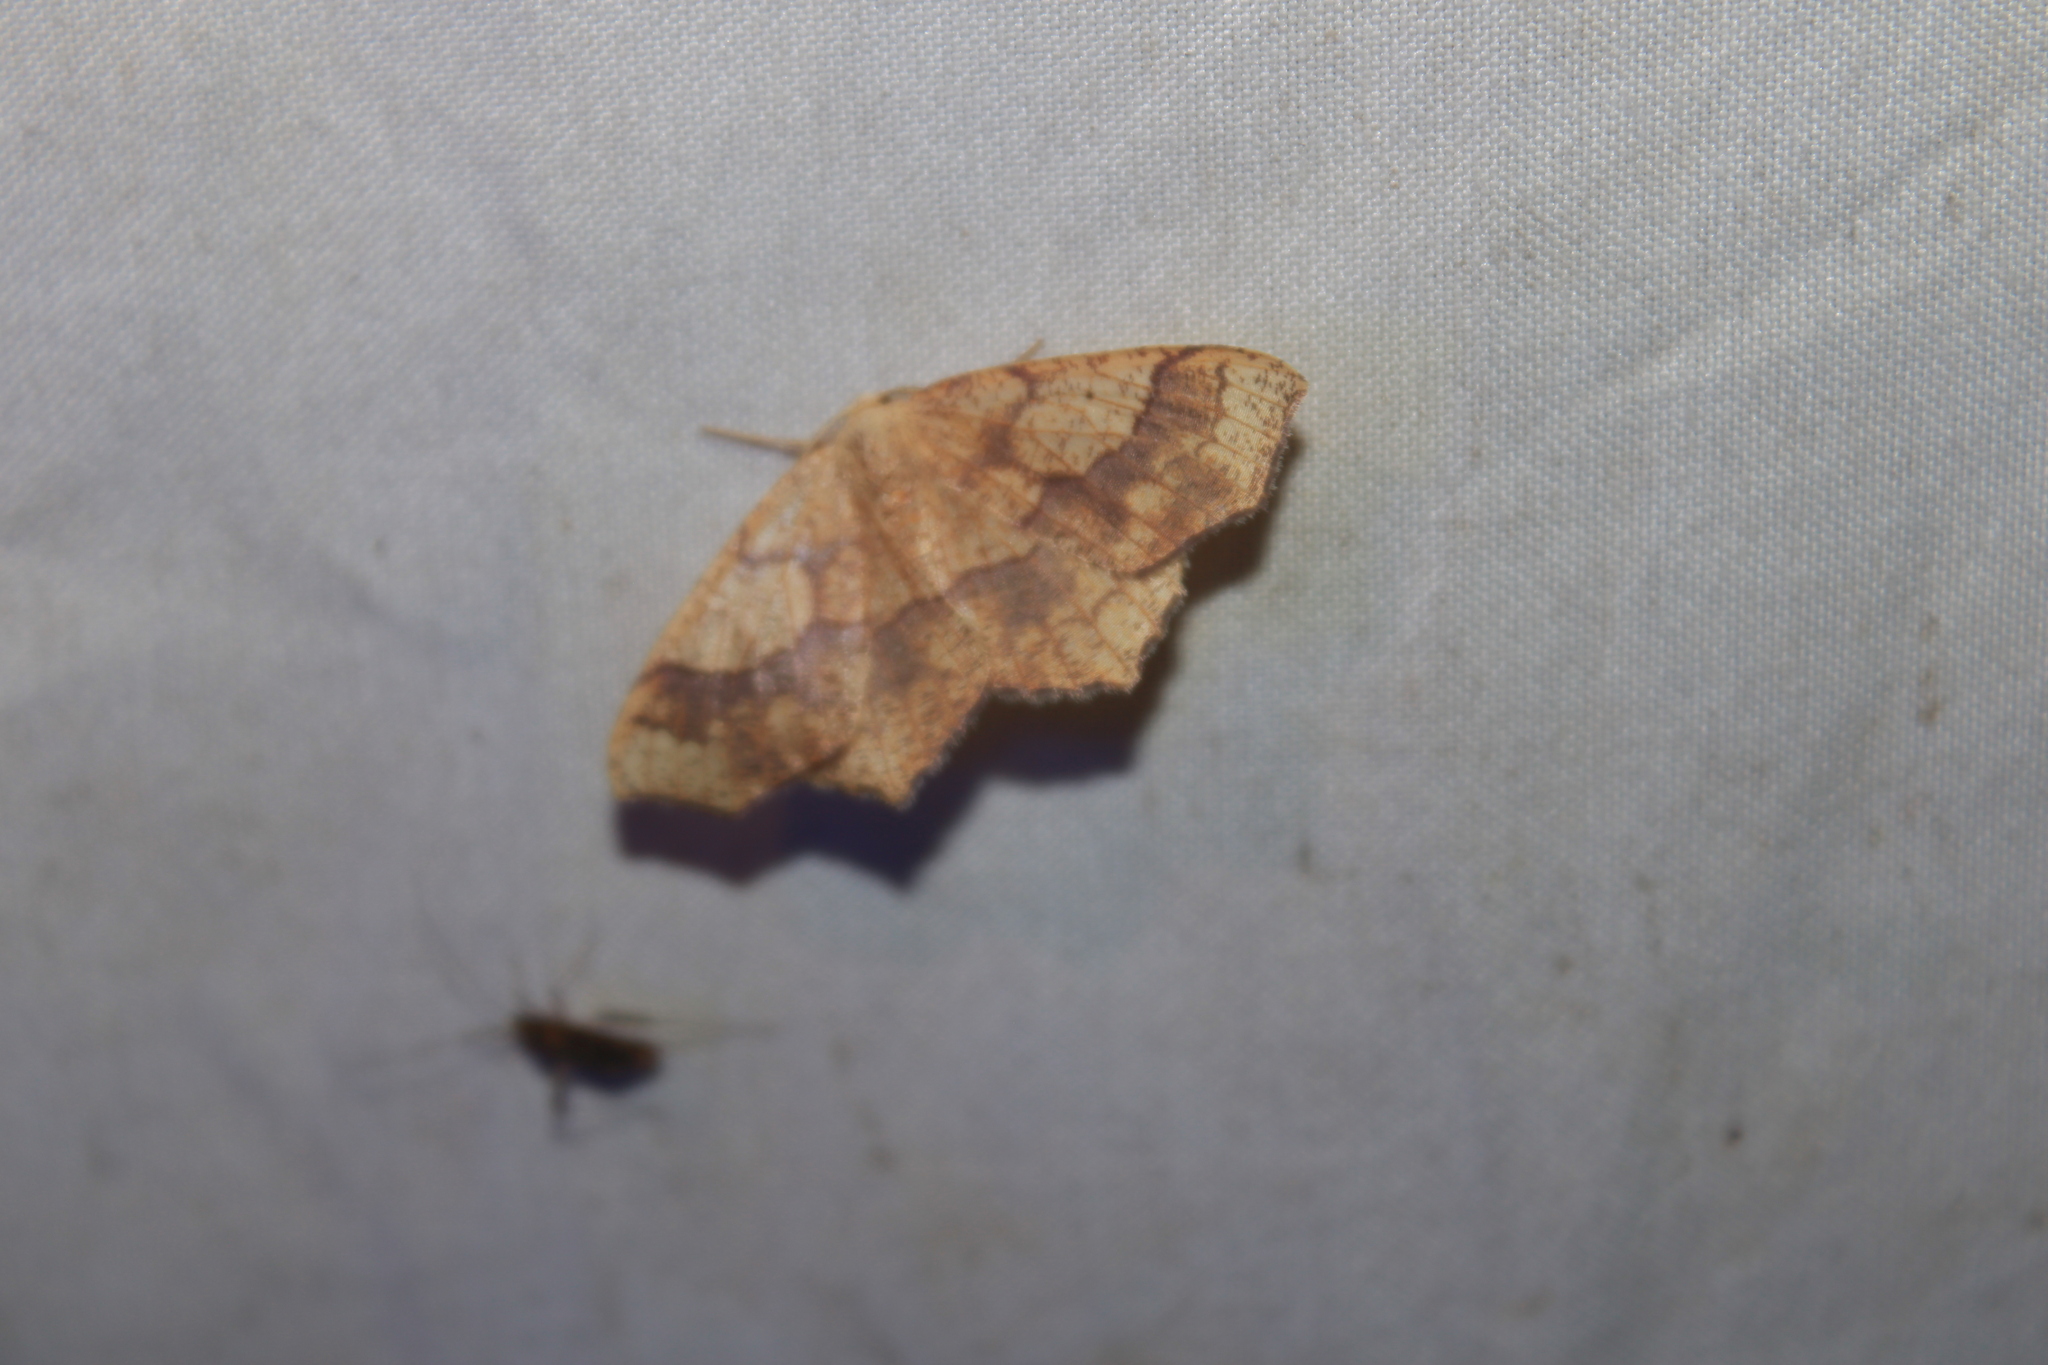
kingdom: Animalia
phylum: Arthropoda
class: Insecta
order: Lepidoptera
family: Geometridae
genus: Besma
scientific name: Besma quercivoraria
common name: Oak besma
